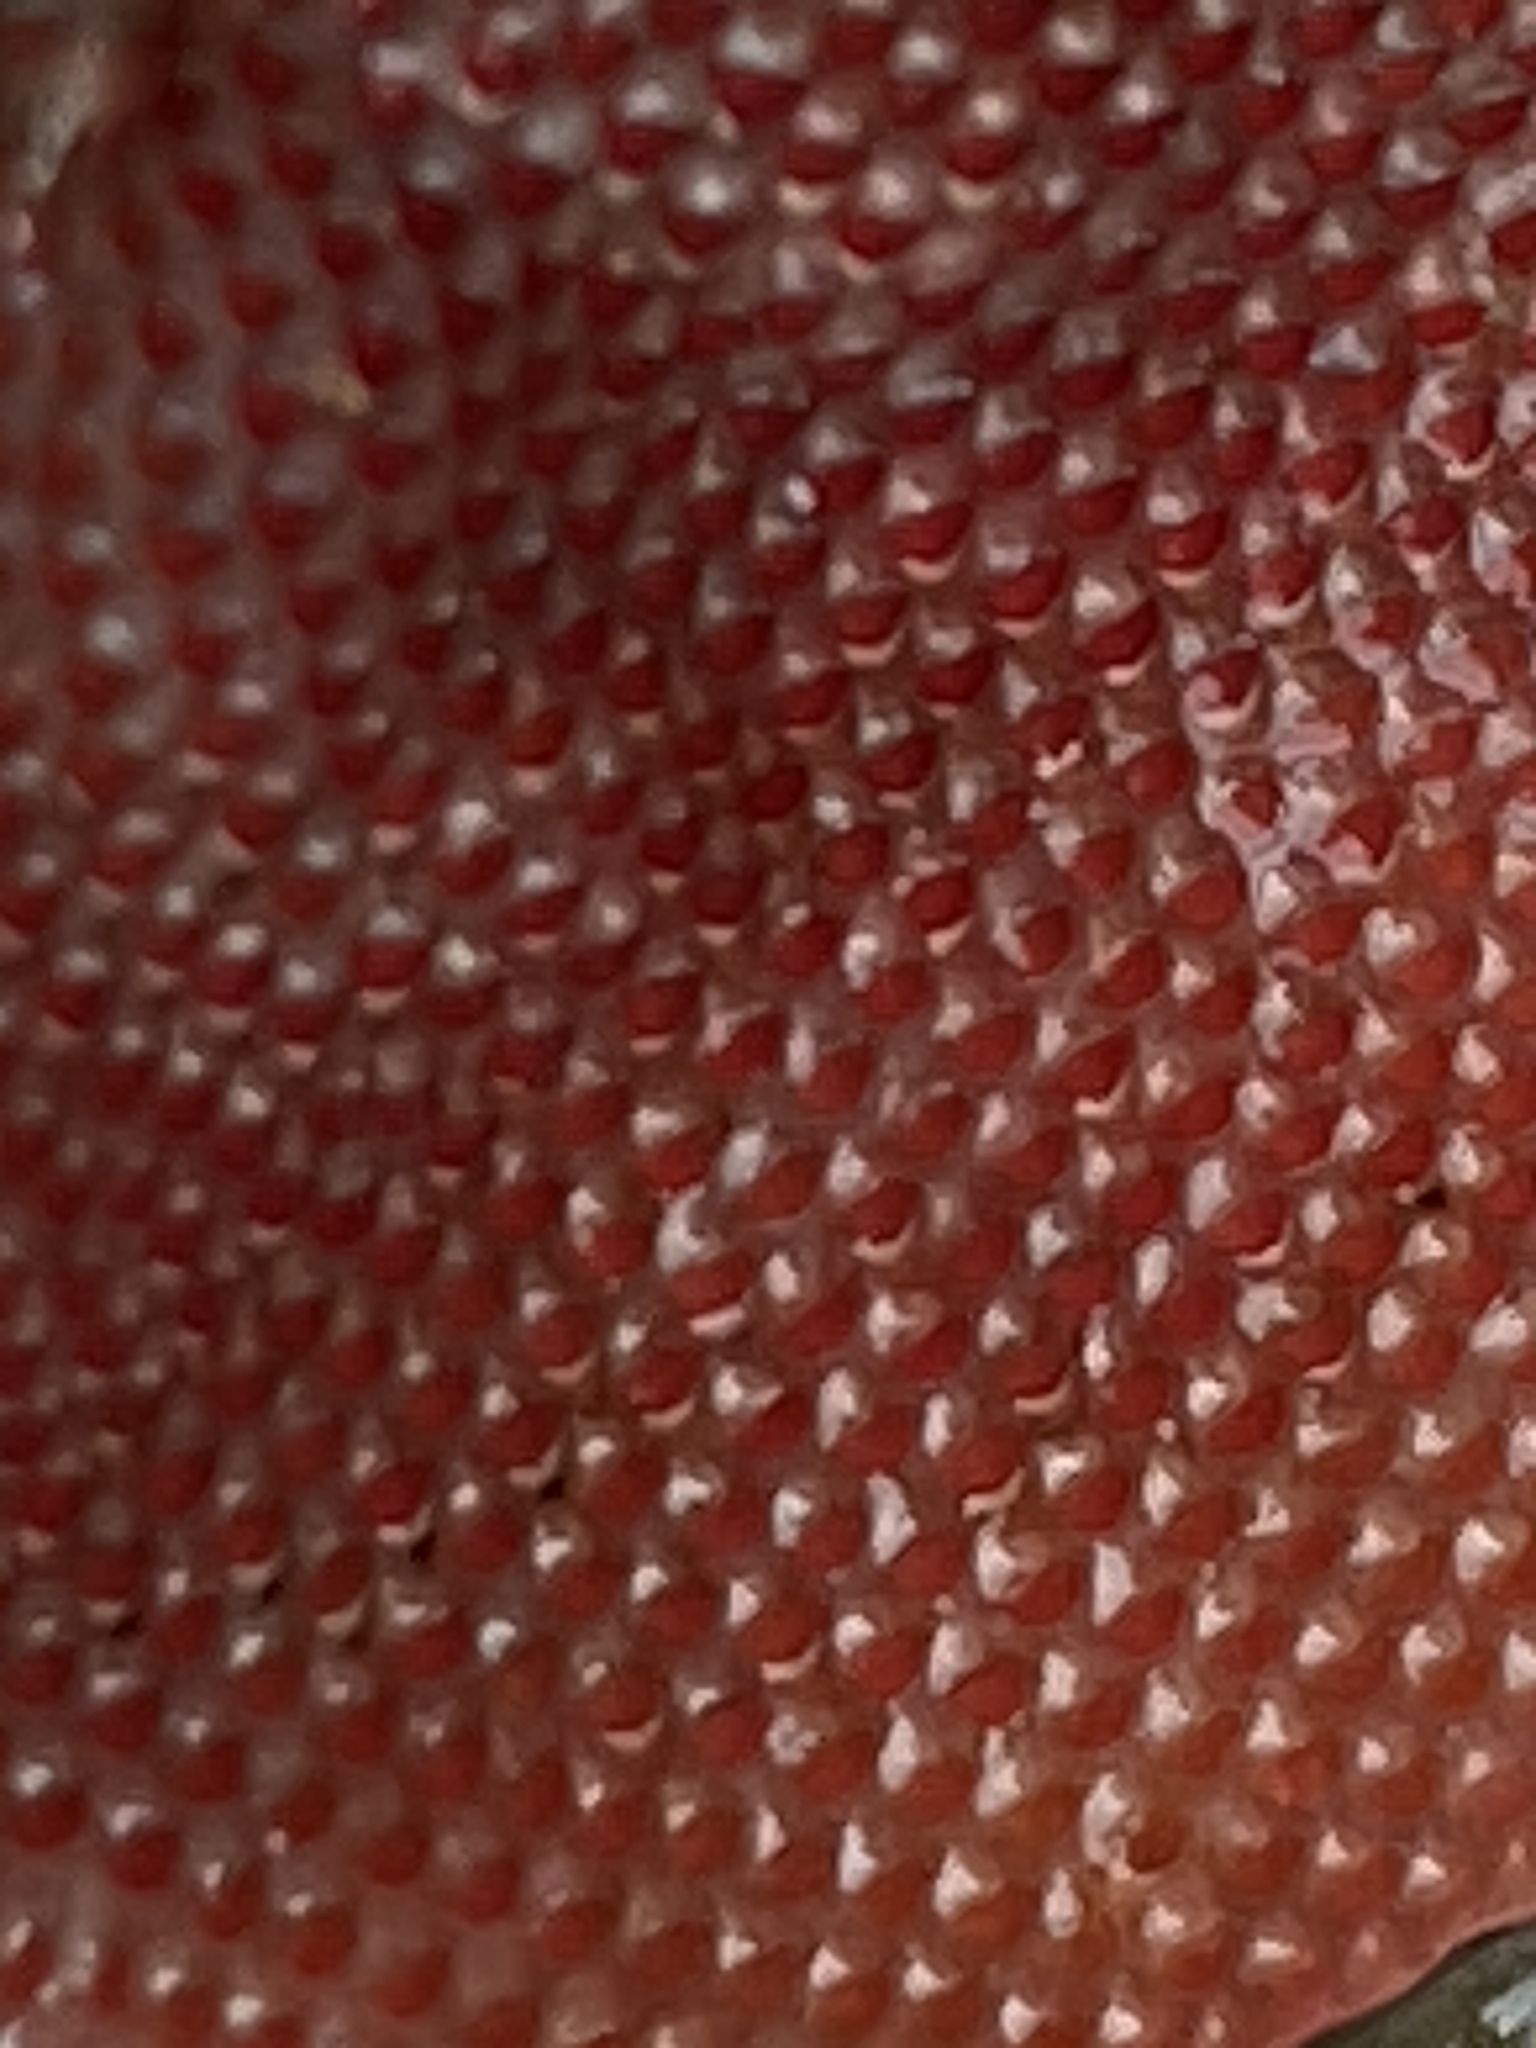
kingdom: Animalia
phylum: Bryozoa
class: Gymnolaemata
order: Cheilostomatida
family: Eurystomellidae
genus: Integripelta
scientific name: Integripelta bilabiata
